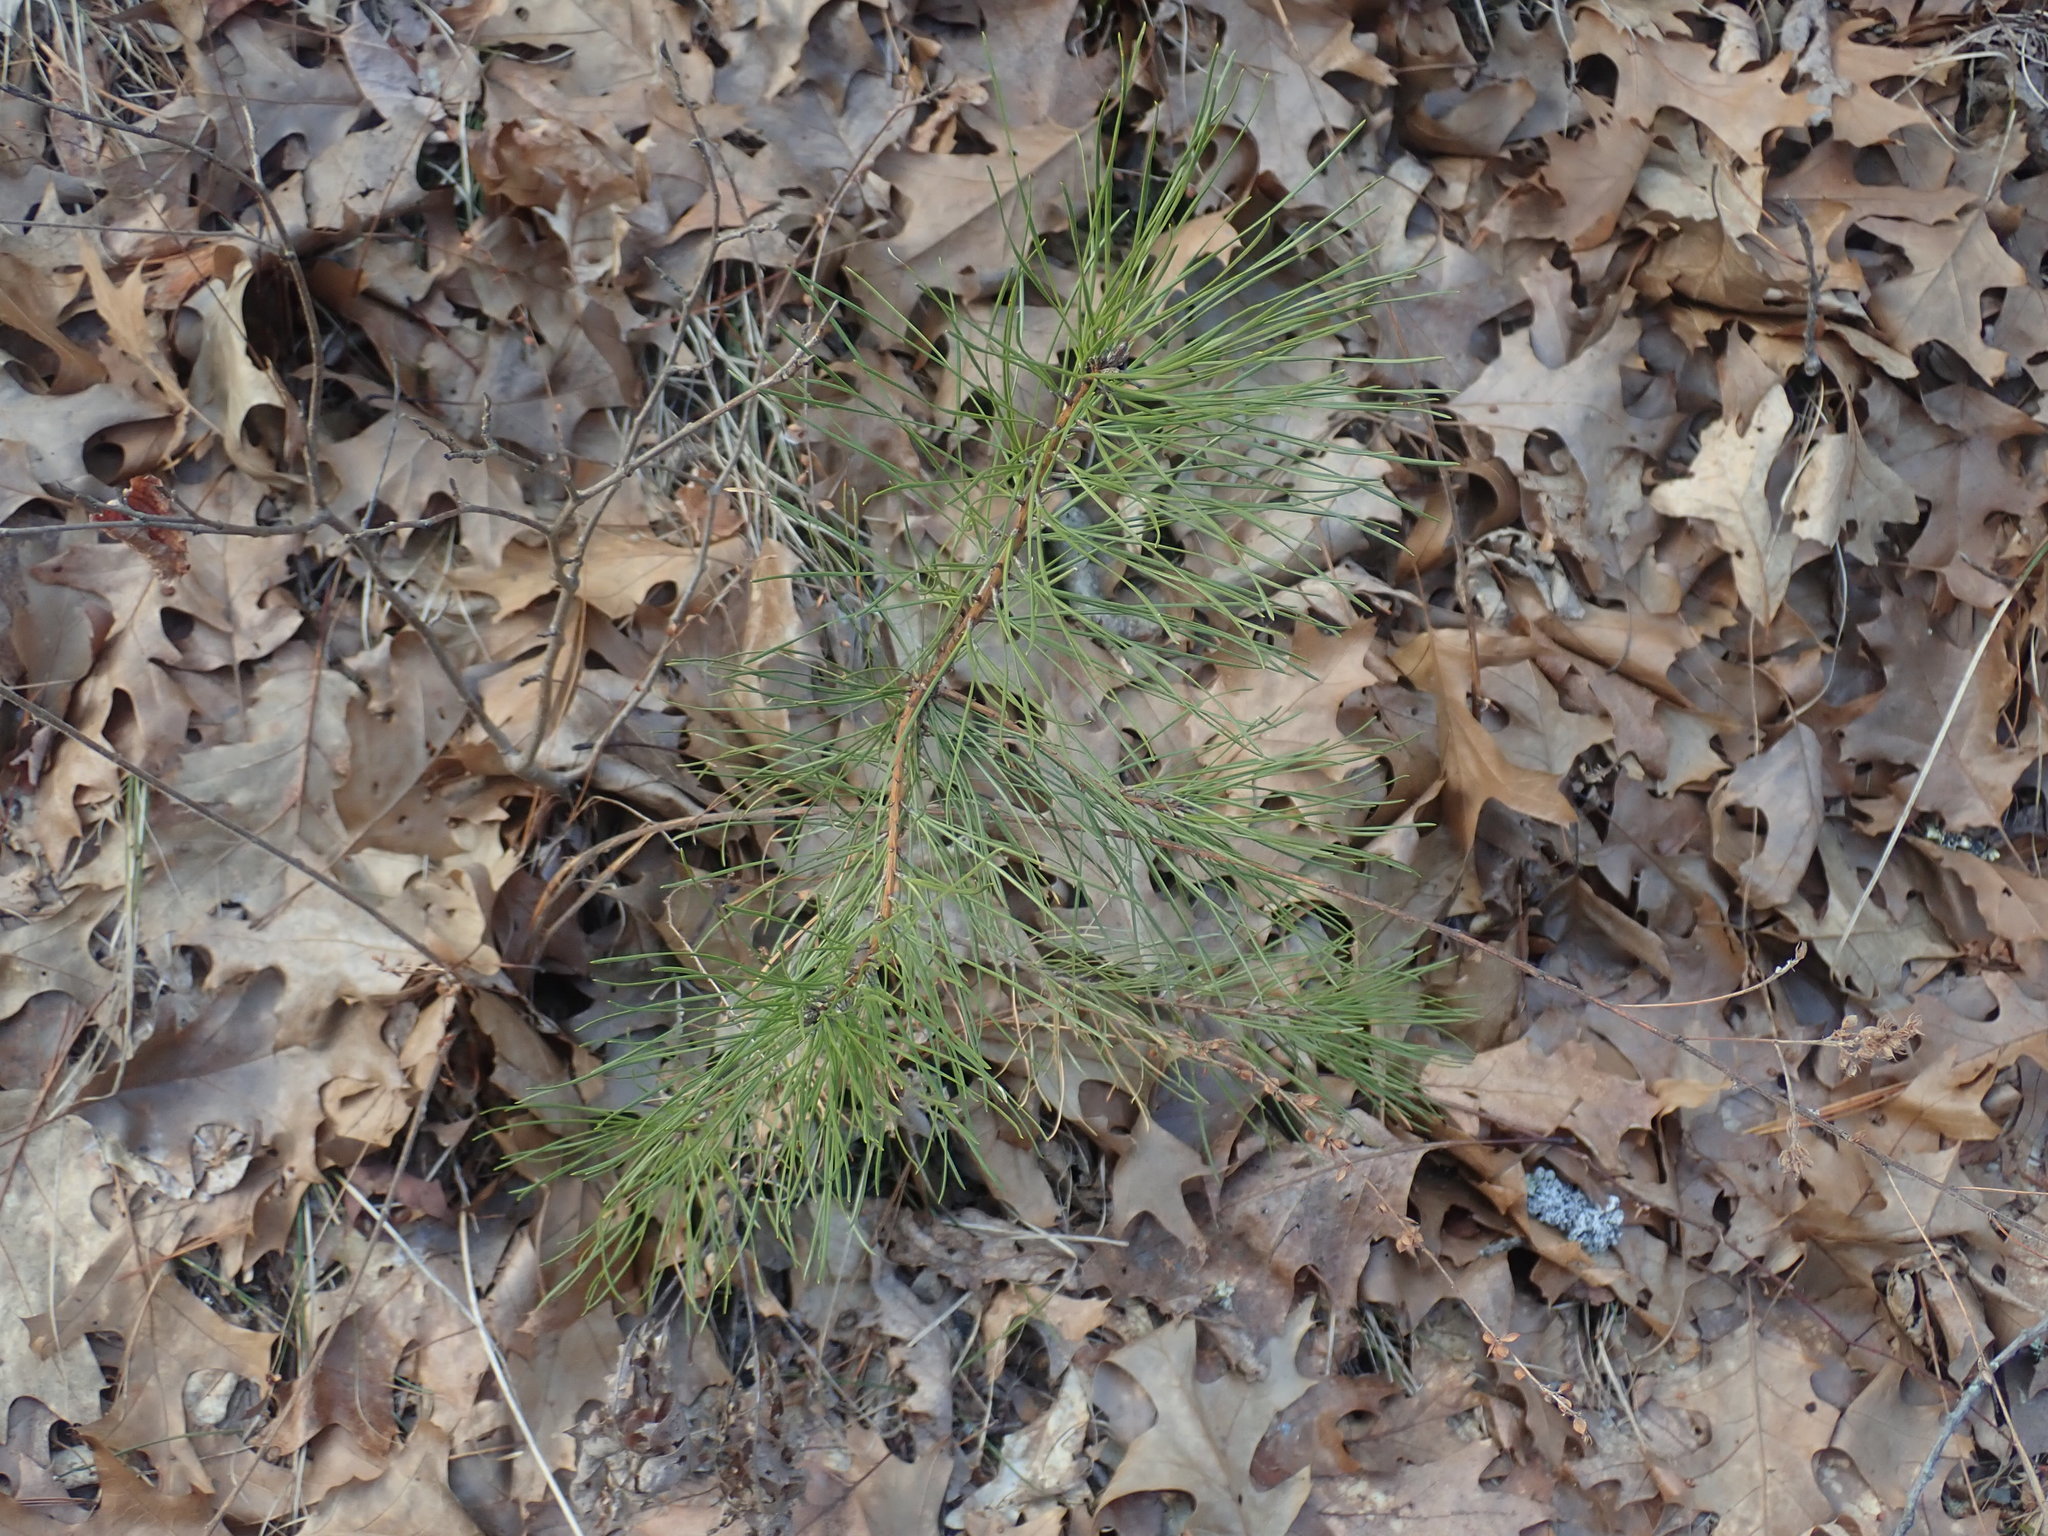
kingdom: Plantae
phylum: Tracheophyta
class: Pinopsida
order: Pinales
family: Pinaceae
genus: Pinus
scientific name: Pinus rigida
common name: Pitch pine
